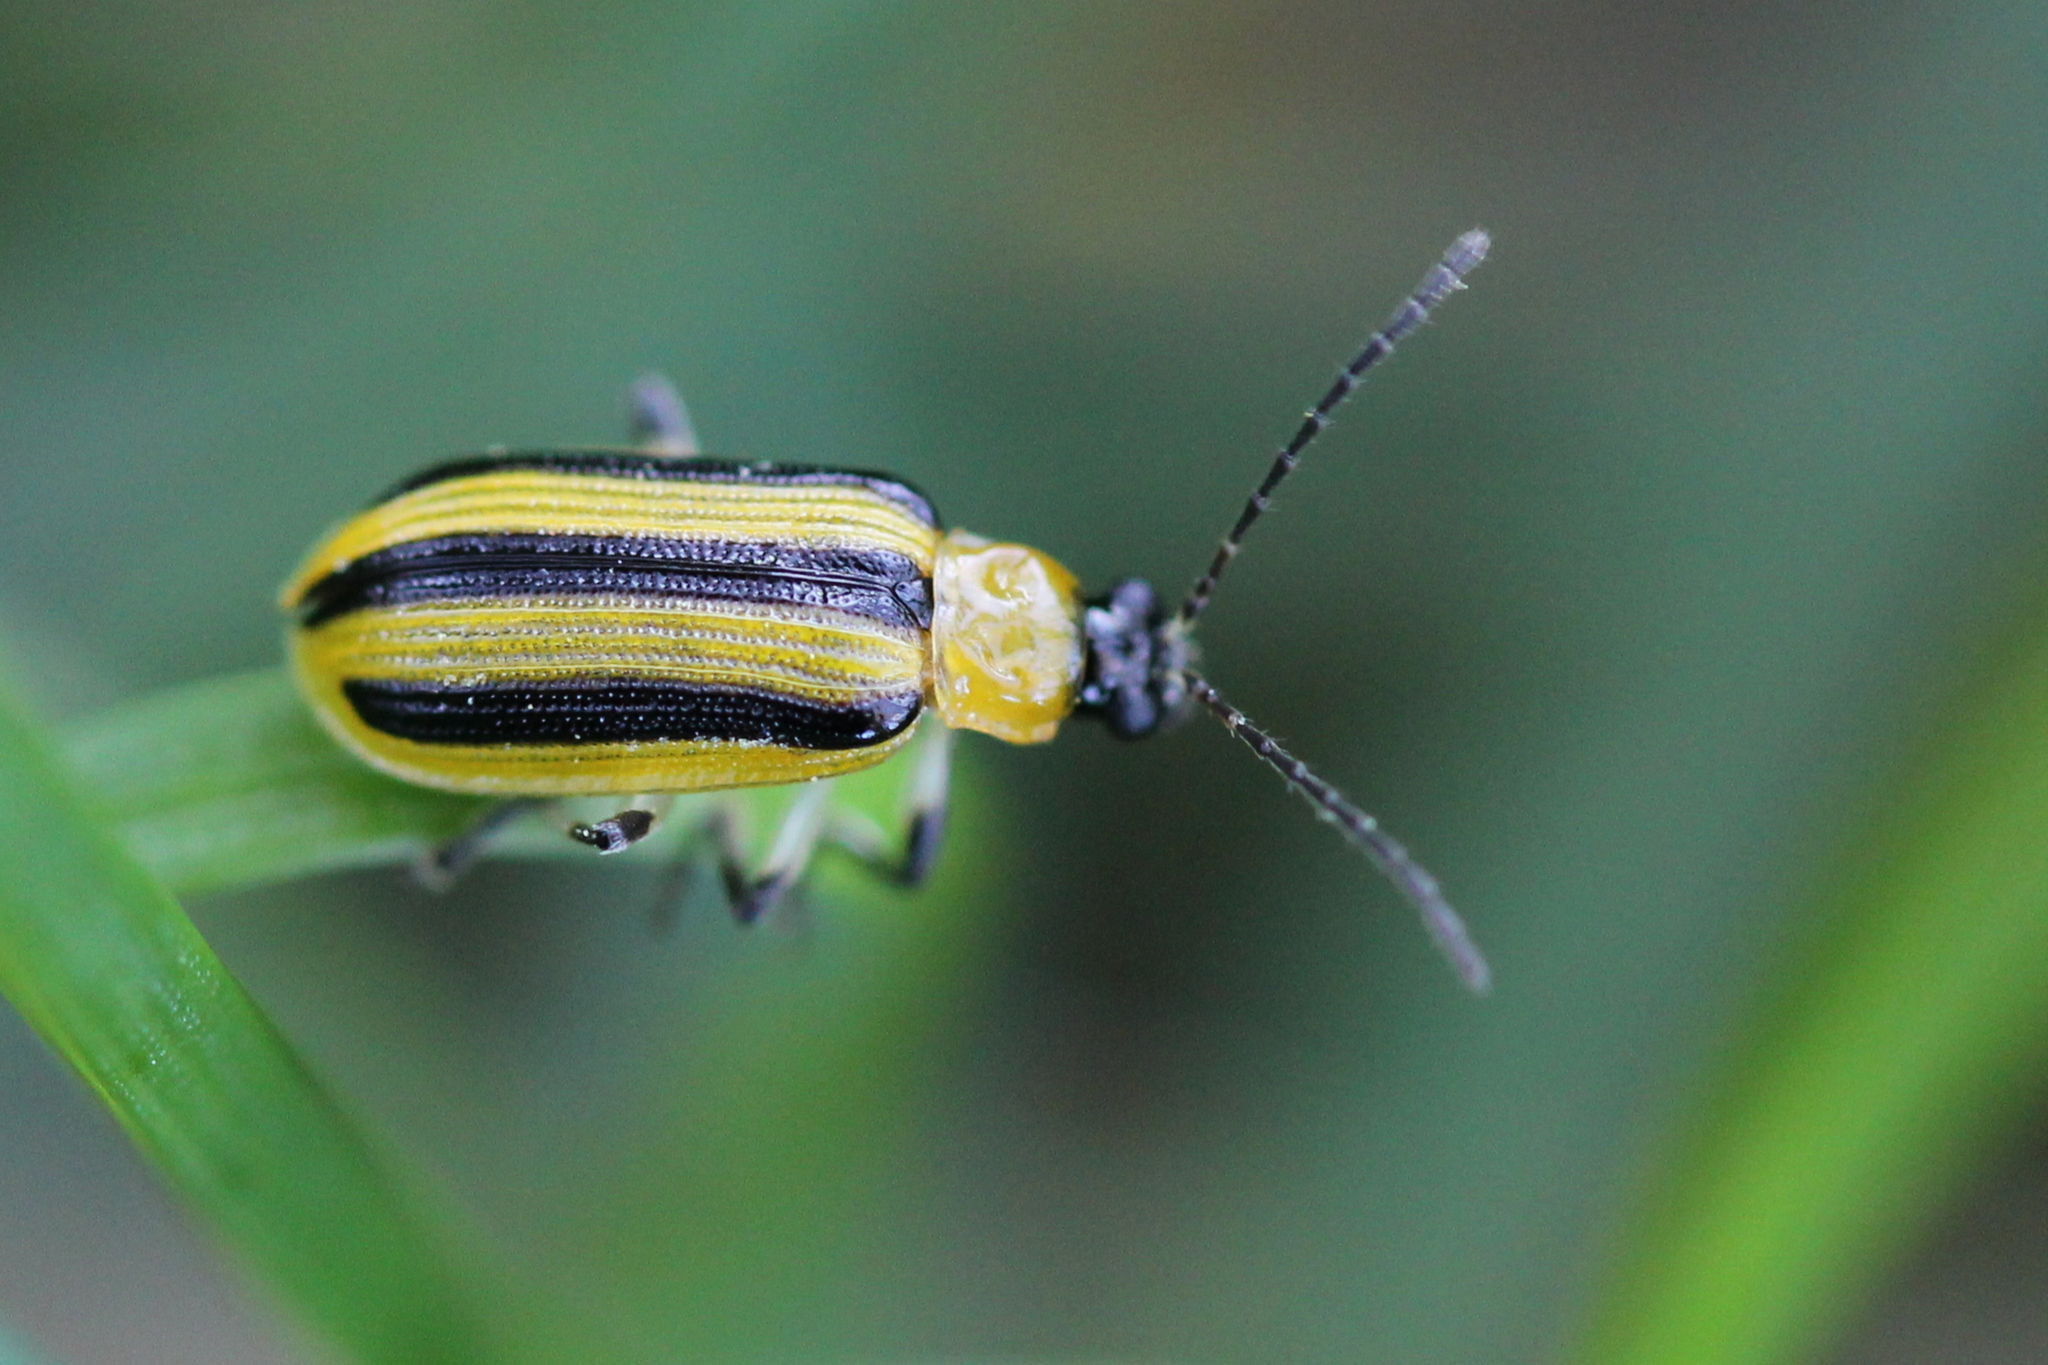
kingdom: Animalia
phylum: Arthropoda
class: Insecta
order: Coleoptera
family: Chrysomelidae
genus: Acalymma
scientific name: Acalymma vittatum
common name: Striped cucumber beetle
